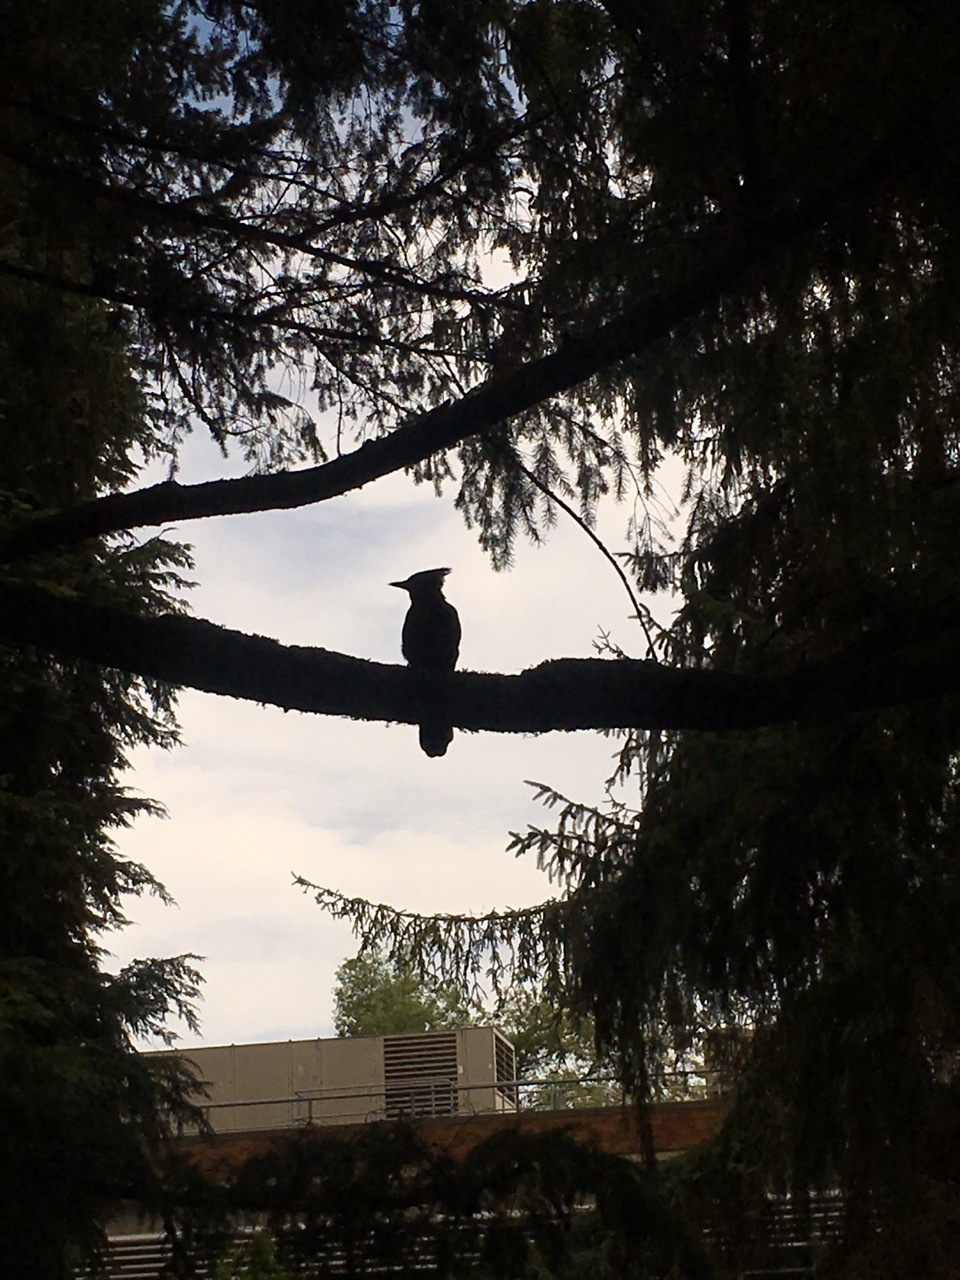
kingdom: Animalia
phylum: Chordata
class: Aves
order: Passeriformes
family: Corvidae
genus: Cyanocitta
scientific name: Cyanocitta stelleri
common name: Steller's jay
